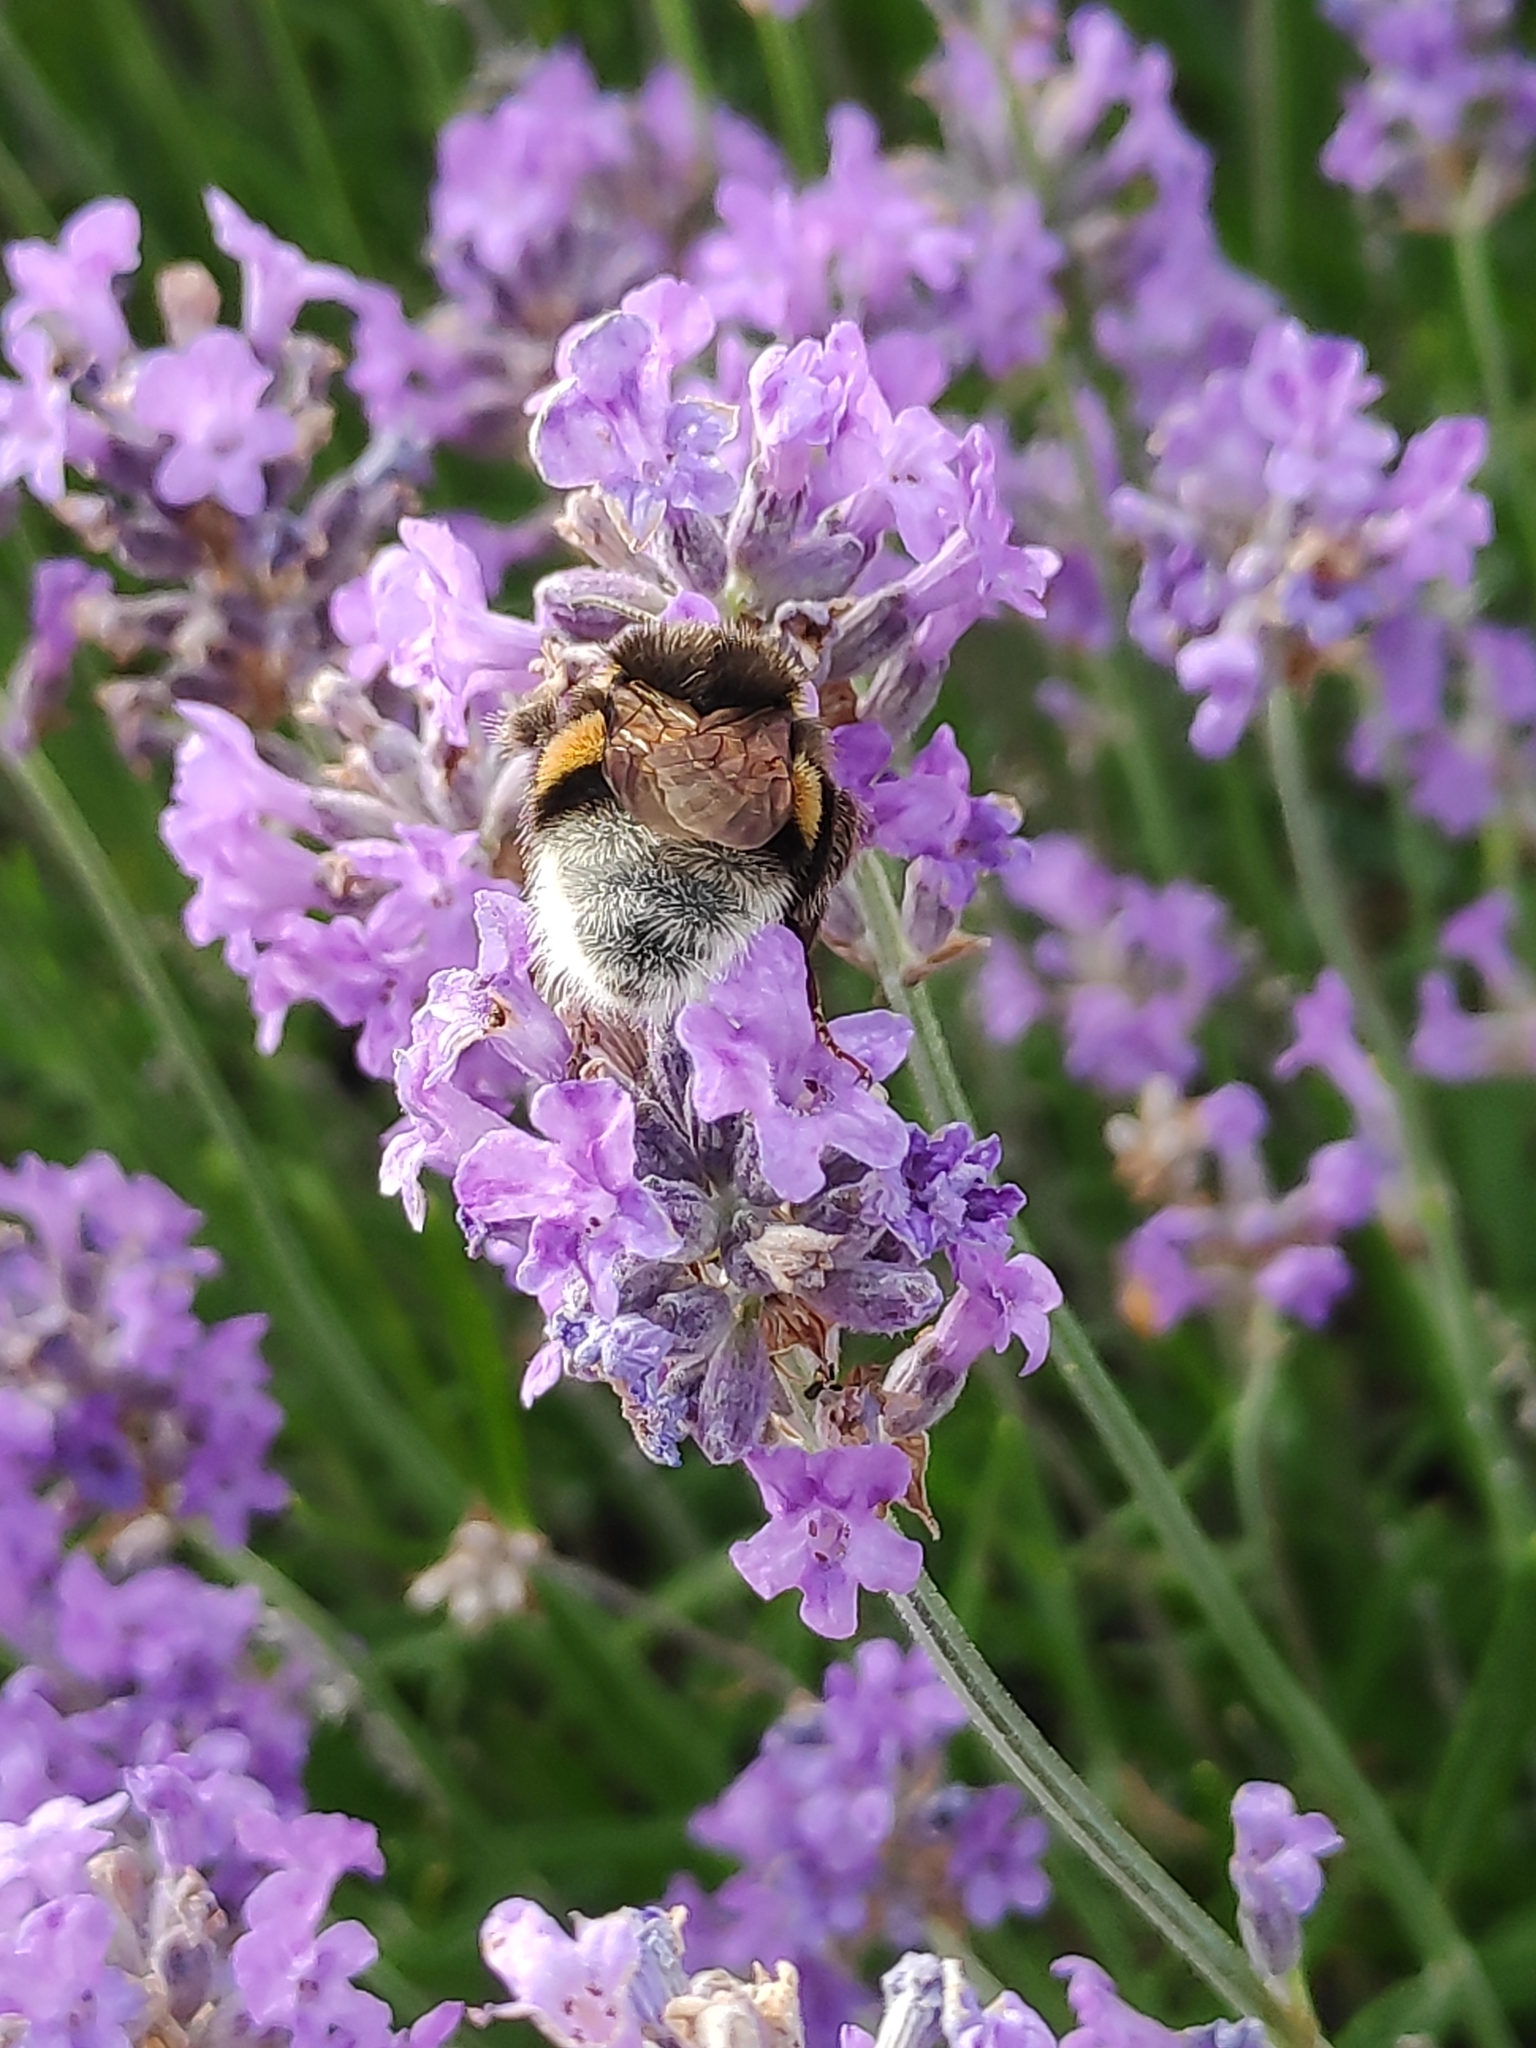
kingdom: Animalia
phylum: Arthropoda
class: Insecta
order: Hymenoptera
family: Apidae
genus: Bombus
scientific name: Bombus terrestris
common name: Buff-tailed bumblebee
